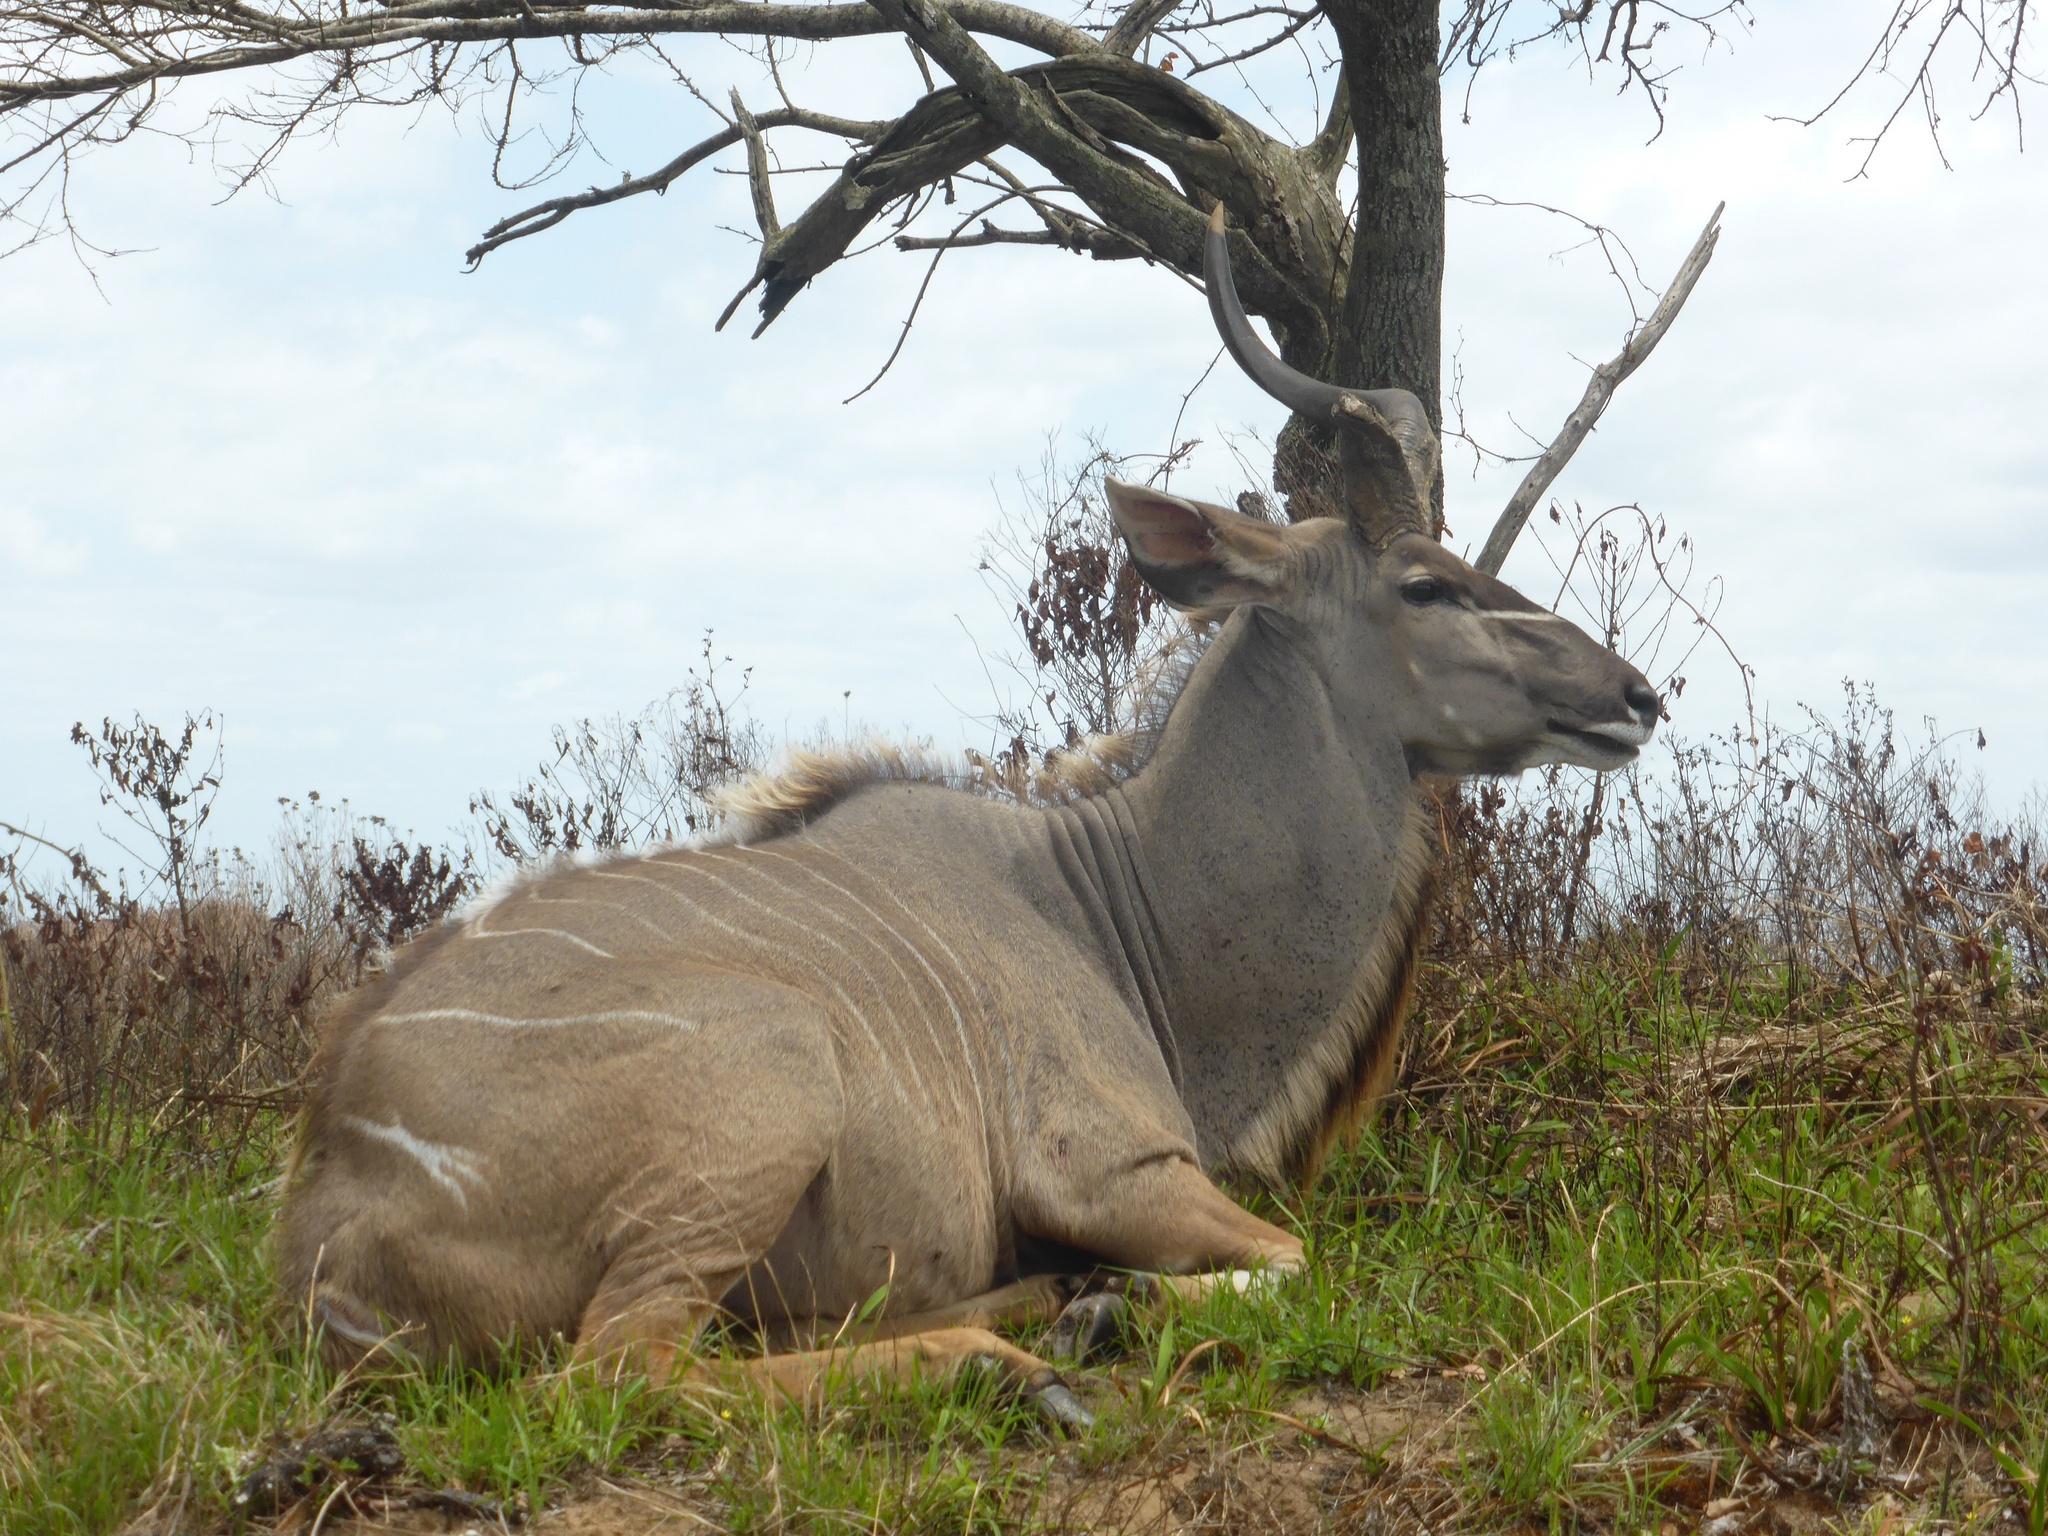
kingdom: Animalia
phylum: Chordata
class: Mammalia
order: Artiodactyla
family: Bovidae
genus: Tragelaphus
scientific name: Tragelaphus strepsiceros
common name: Greater kudu
